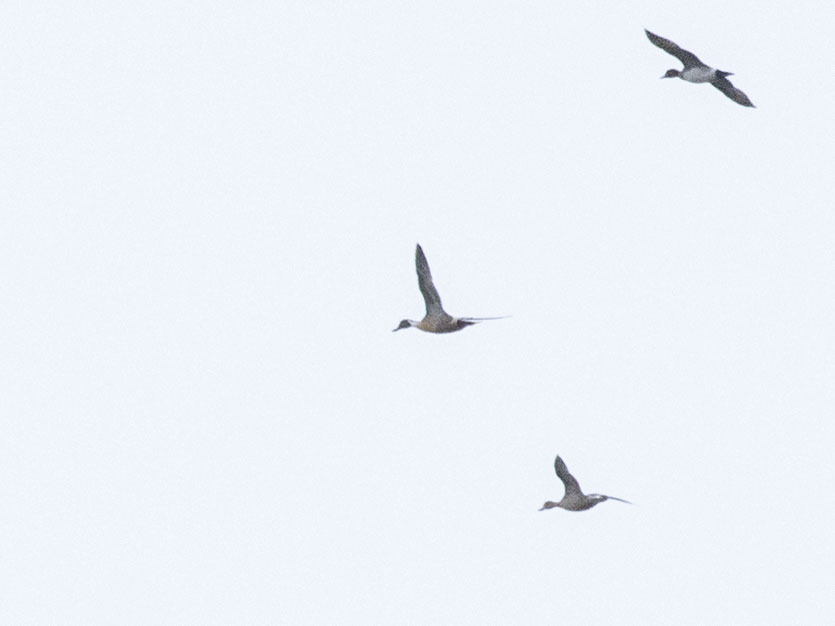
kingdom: Animalia
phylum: Chordata
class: Aves
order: Anseriformes
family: Anatidae
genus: Anas
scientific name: Anas acuta
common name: Northern pintail
